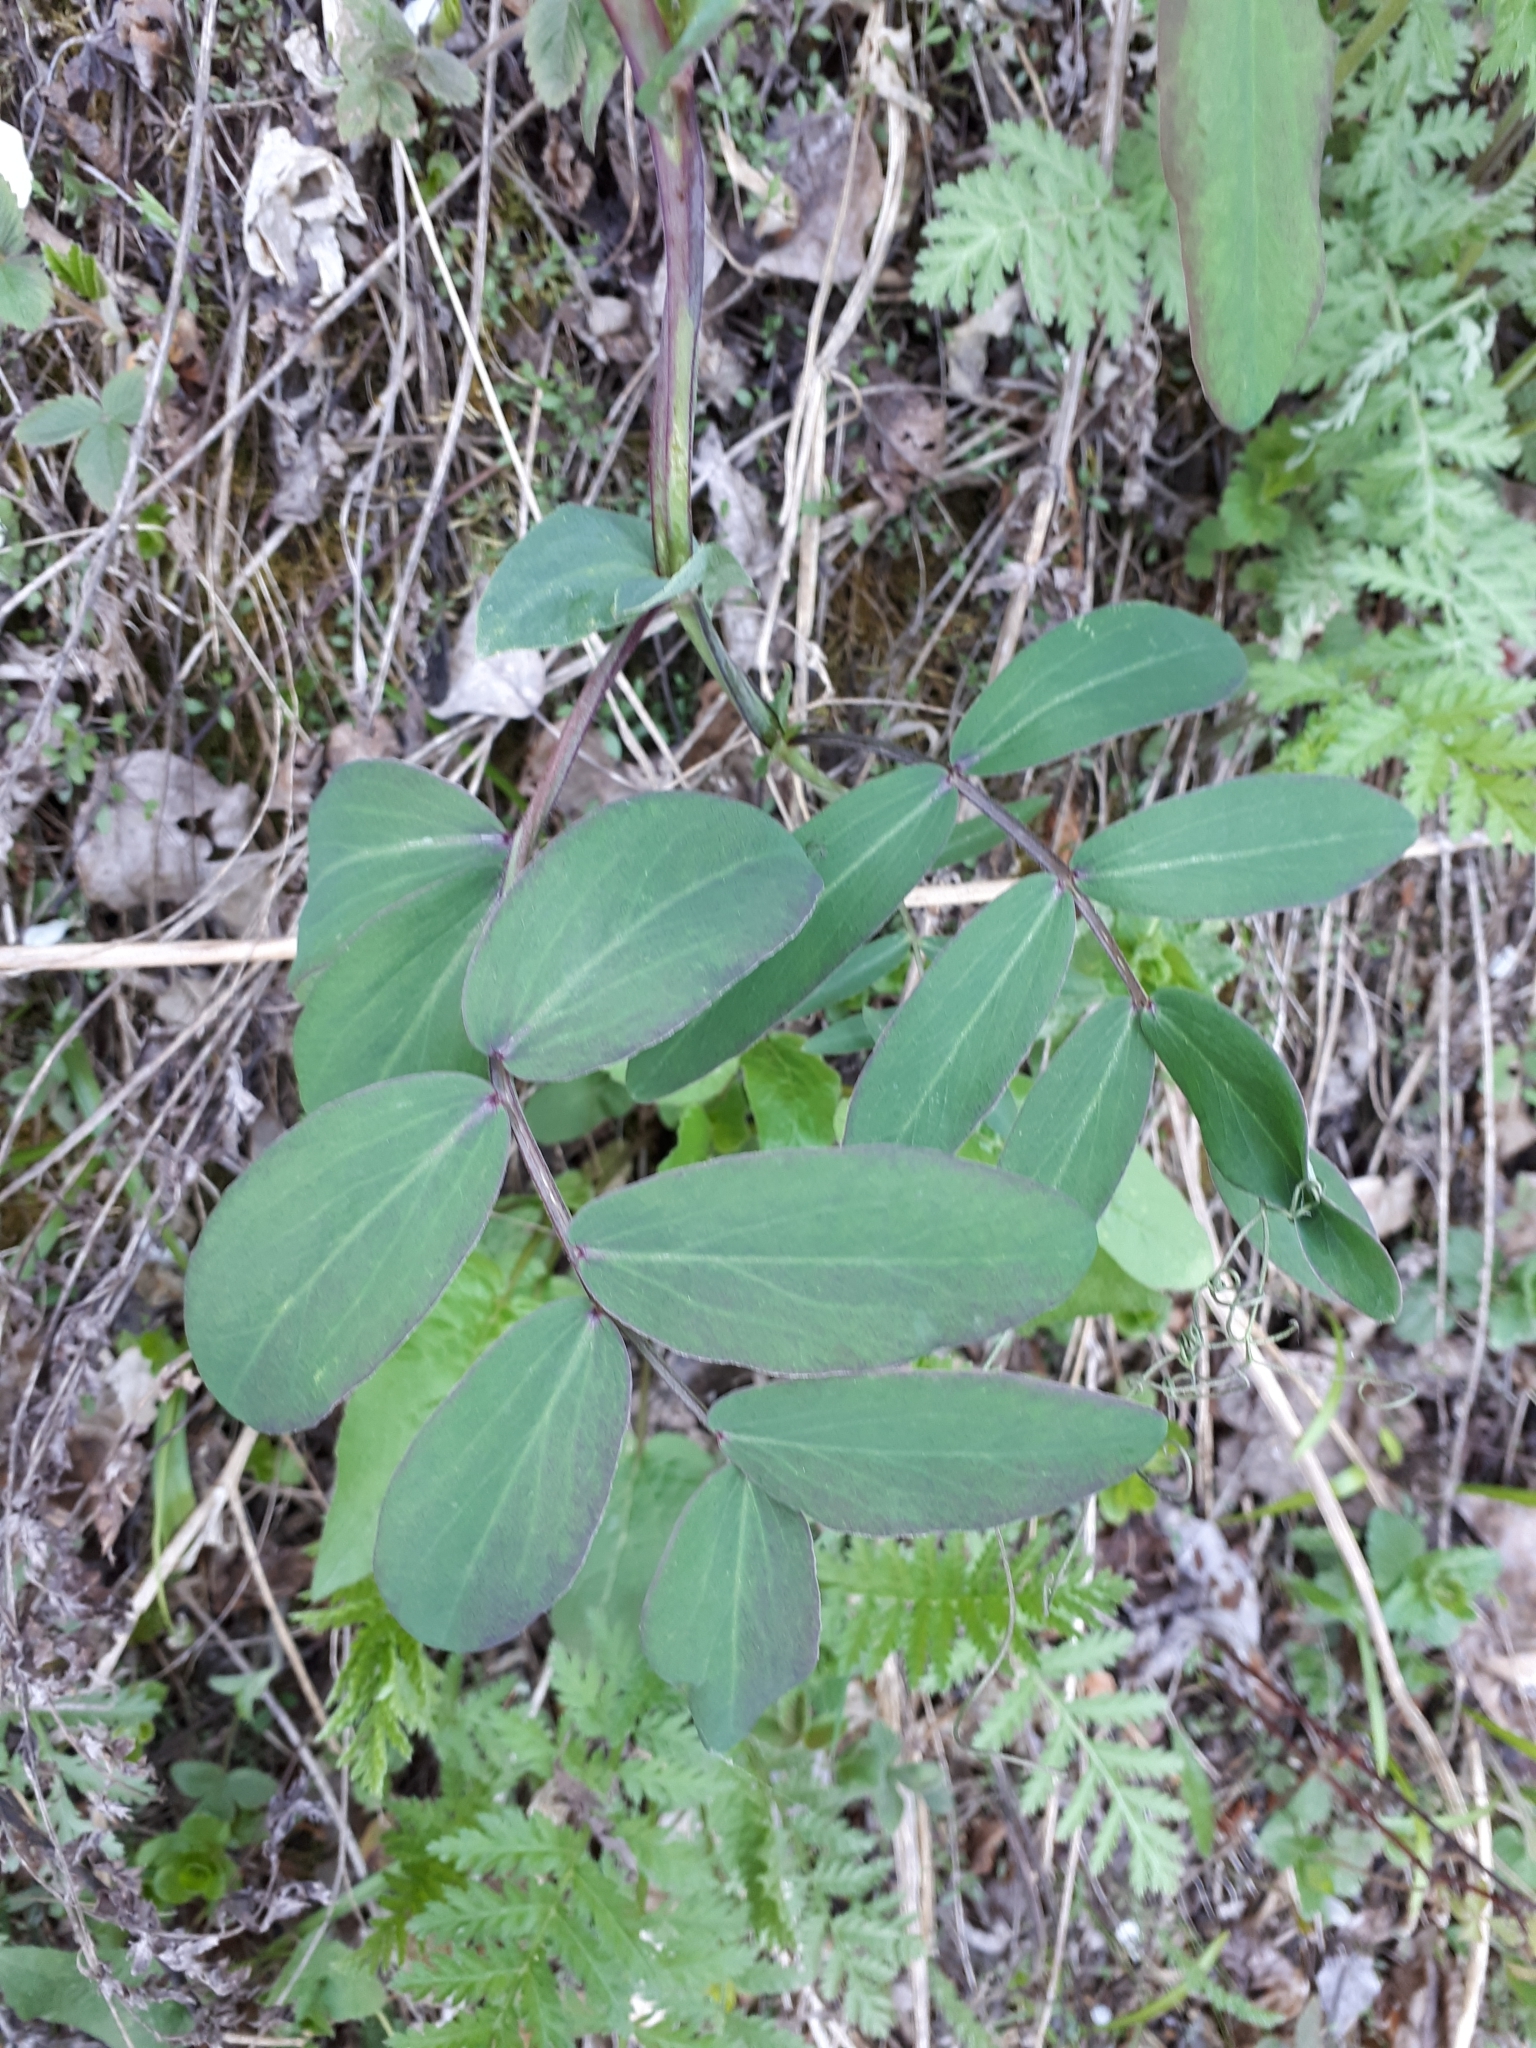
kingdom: Plantae
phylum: Tracheophyta
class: Magnoliopsida
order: Fabales
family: Fabaceae
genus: Lathyrus
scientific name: Lathyrus pisiformis
